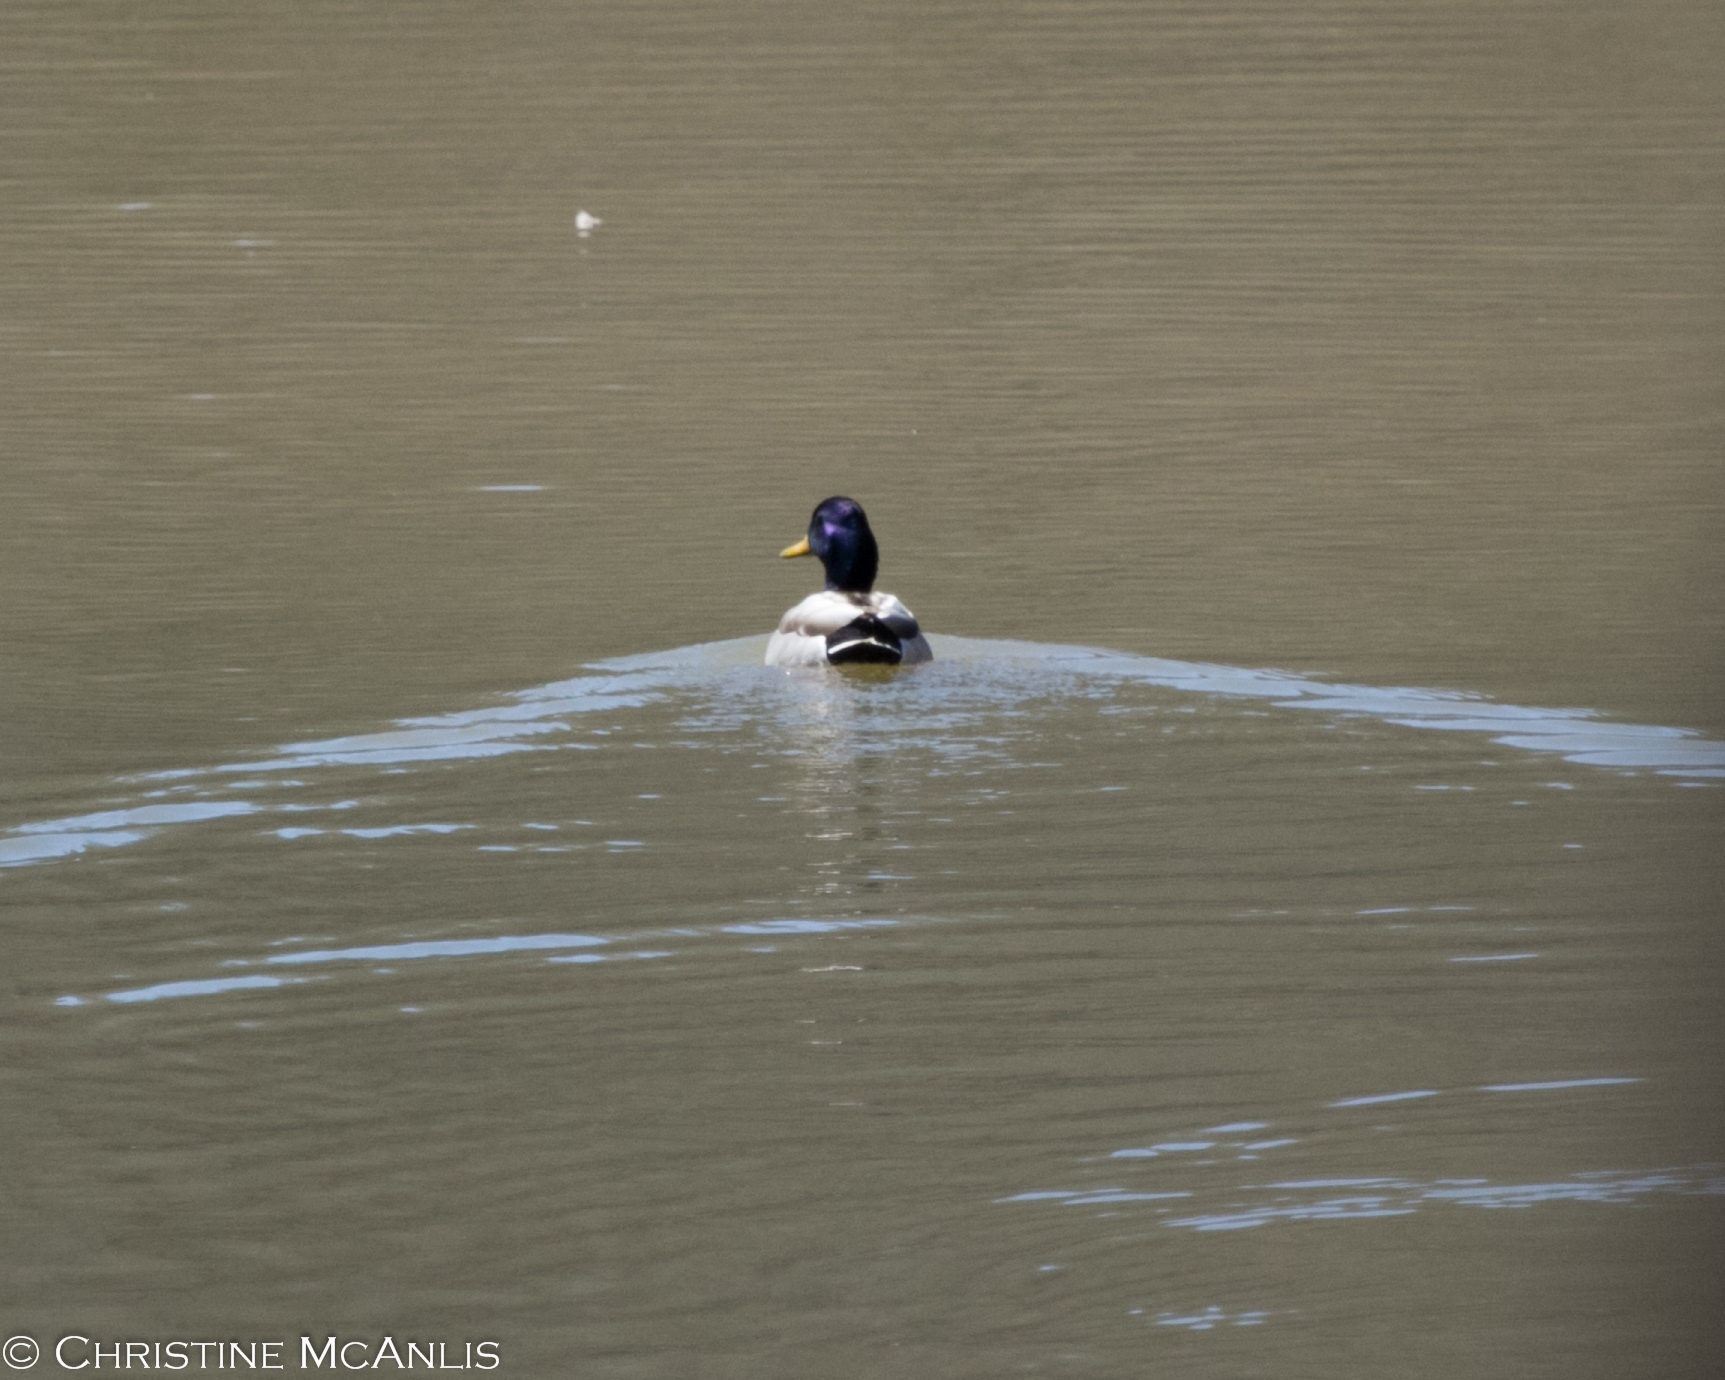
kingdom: Animalia
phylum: Chordata
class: Aves
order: Anseriformes
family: Anatidae
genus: Anas
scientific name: Anas platyrhynchos
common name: Mallard
